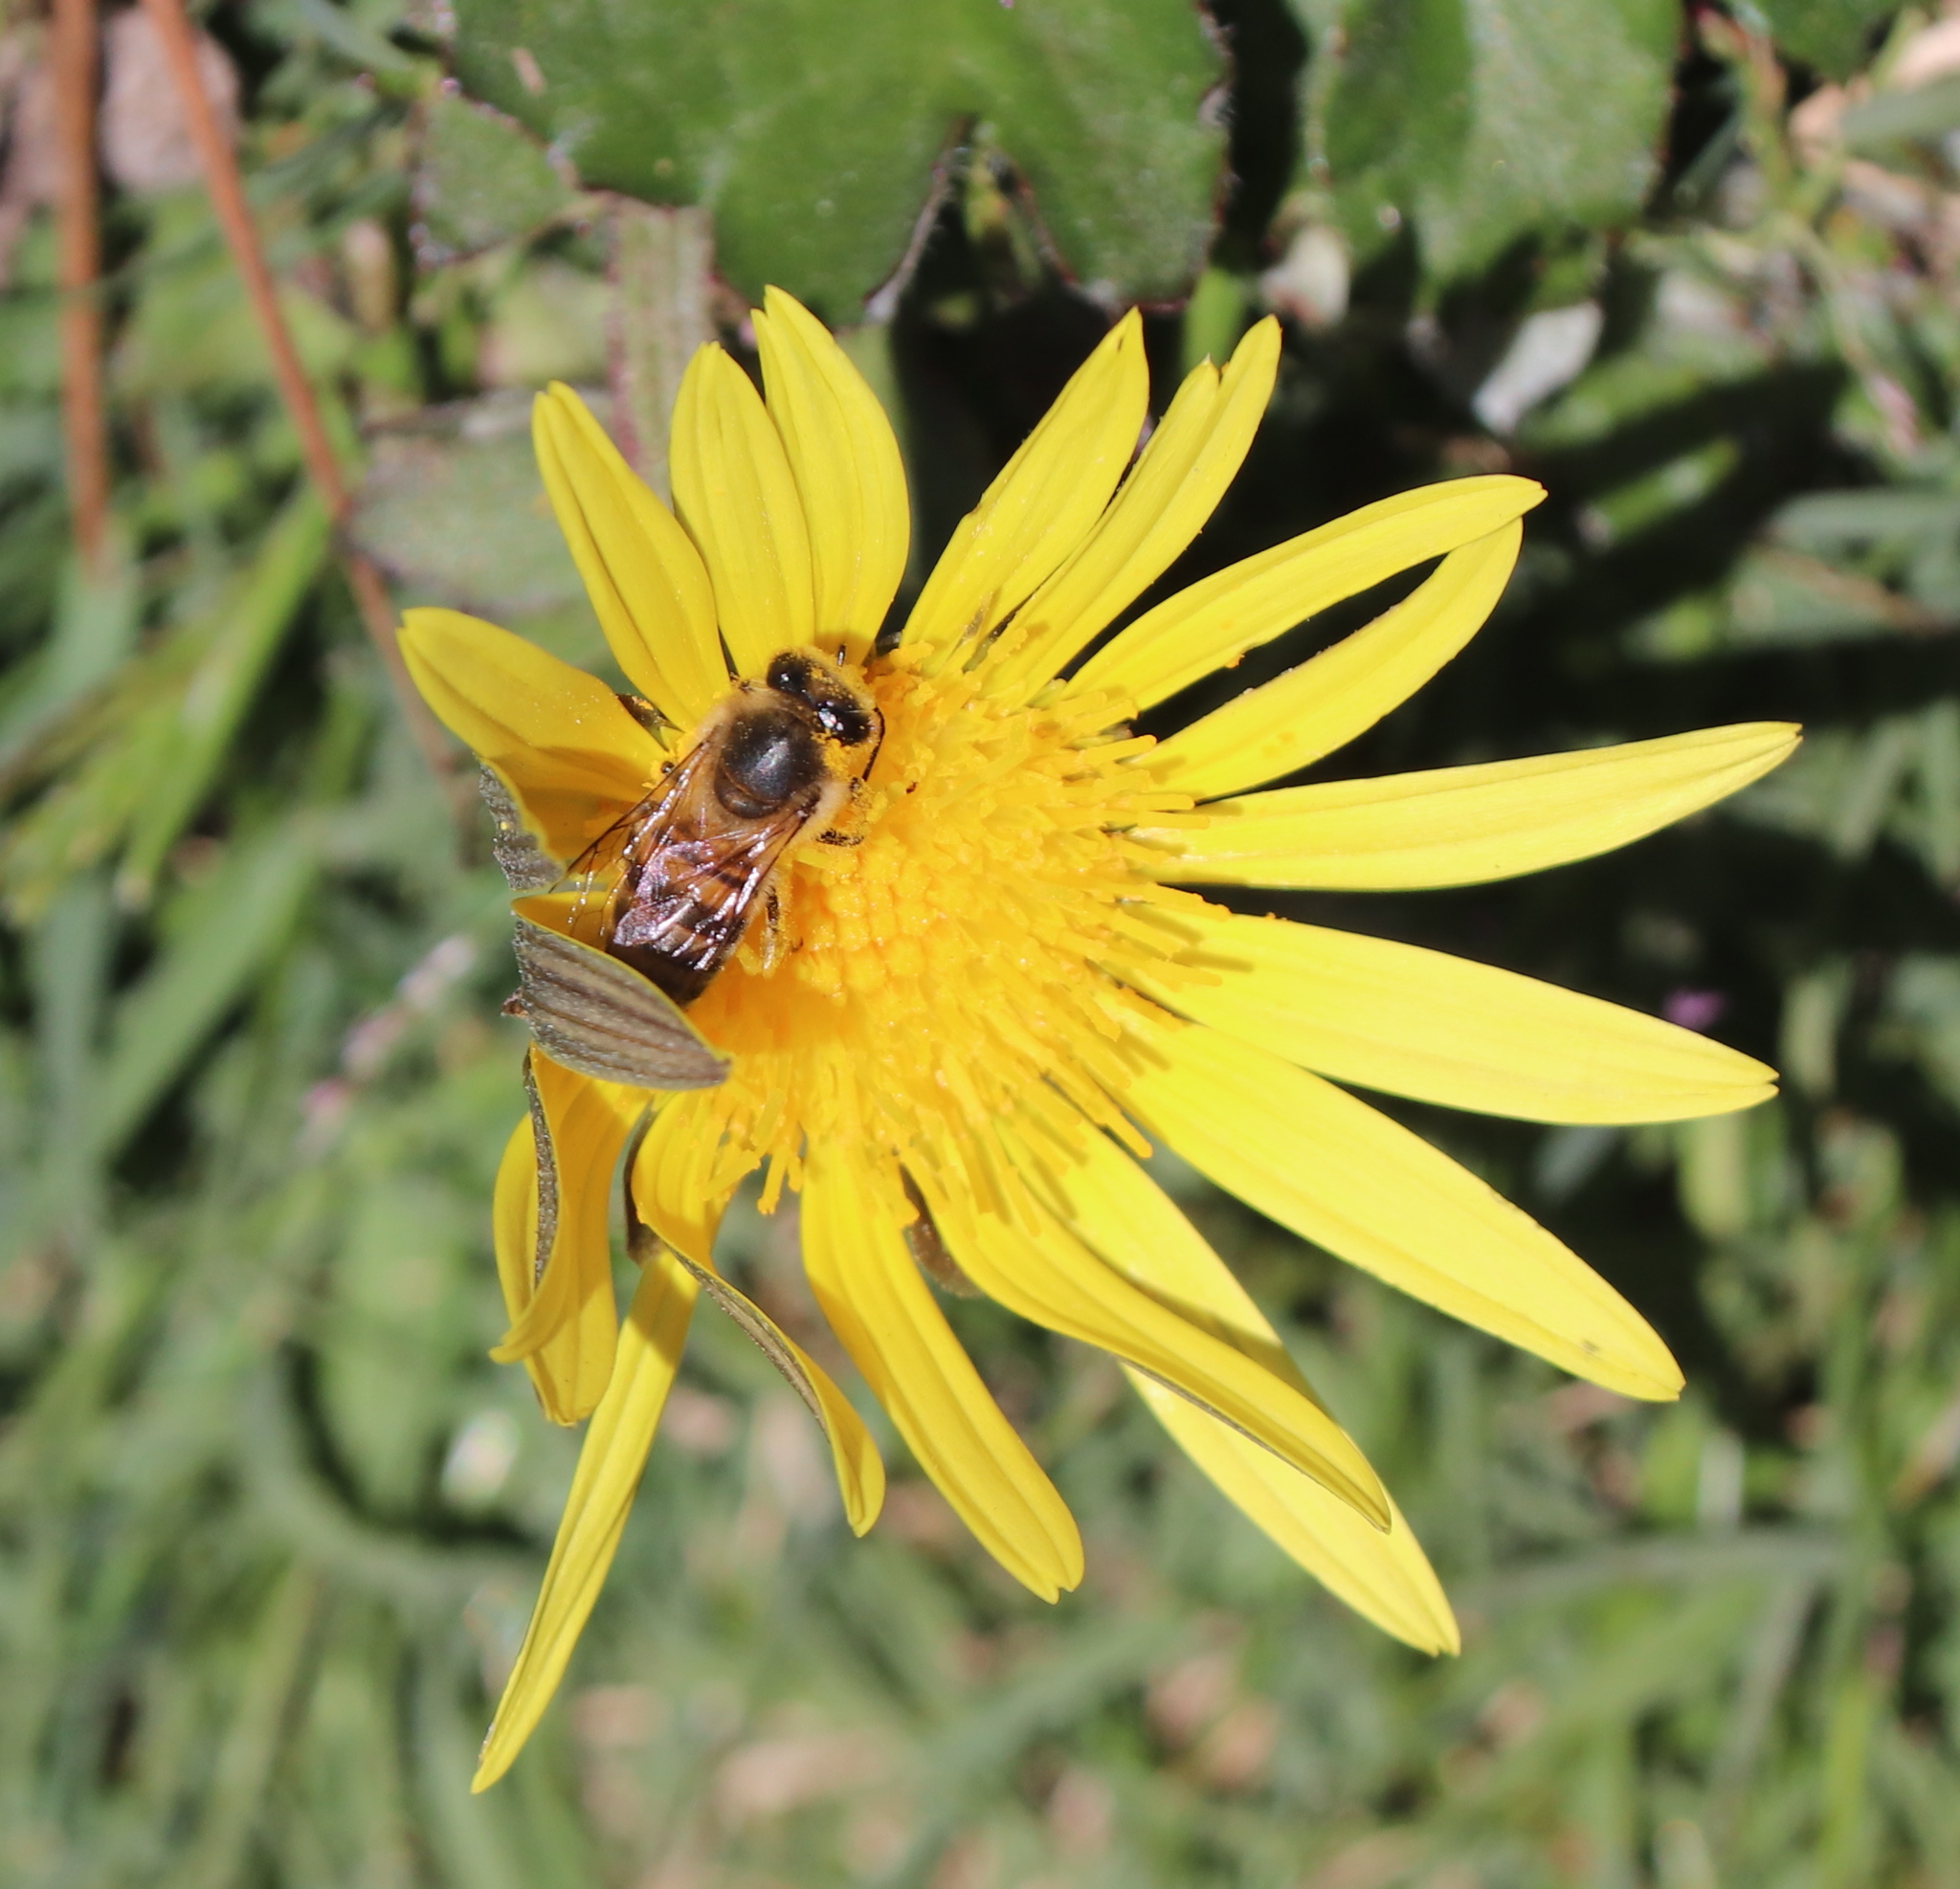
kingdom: Animalia
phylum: Arthropoda
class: Insecta
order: Hymenoptera
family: Apidae
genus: Apis
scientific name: Apis mellifera
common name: Honey bee
